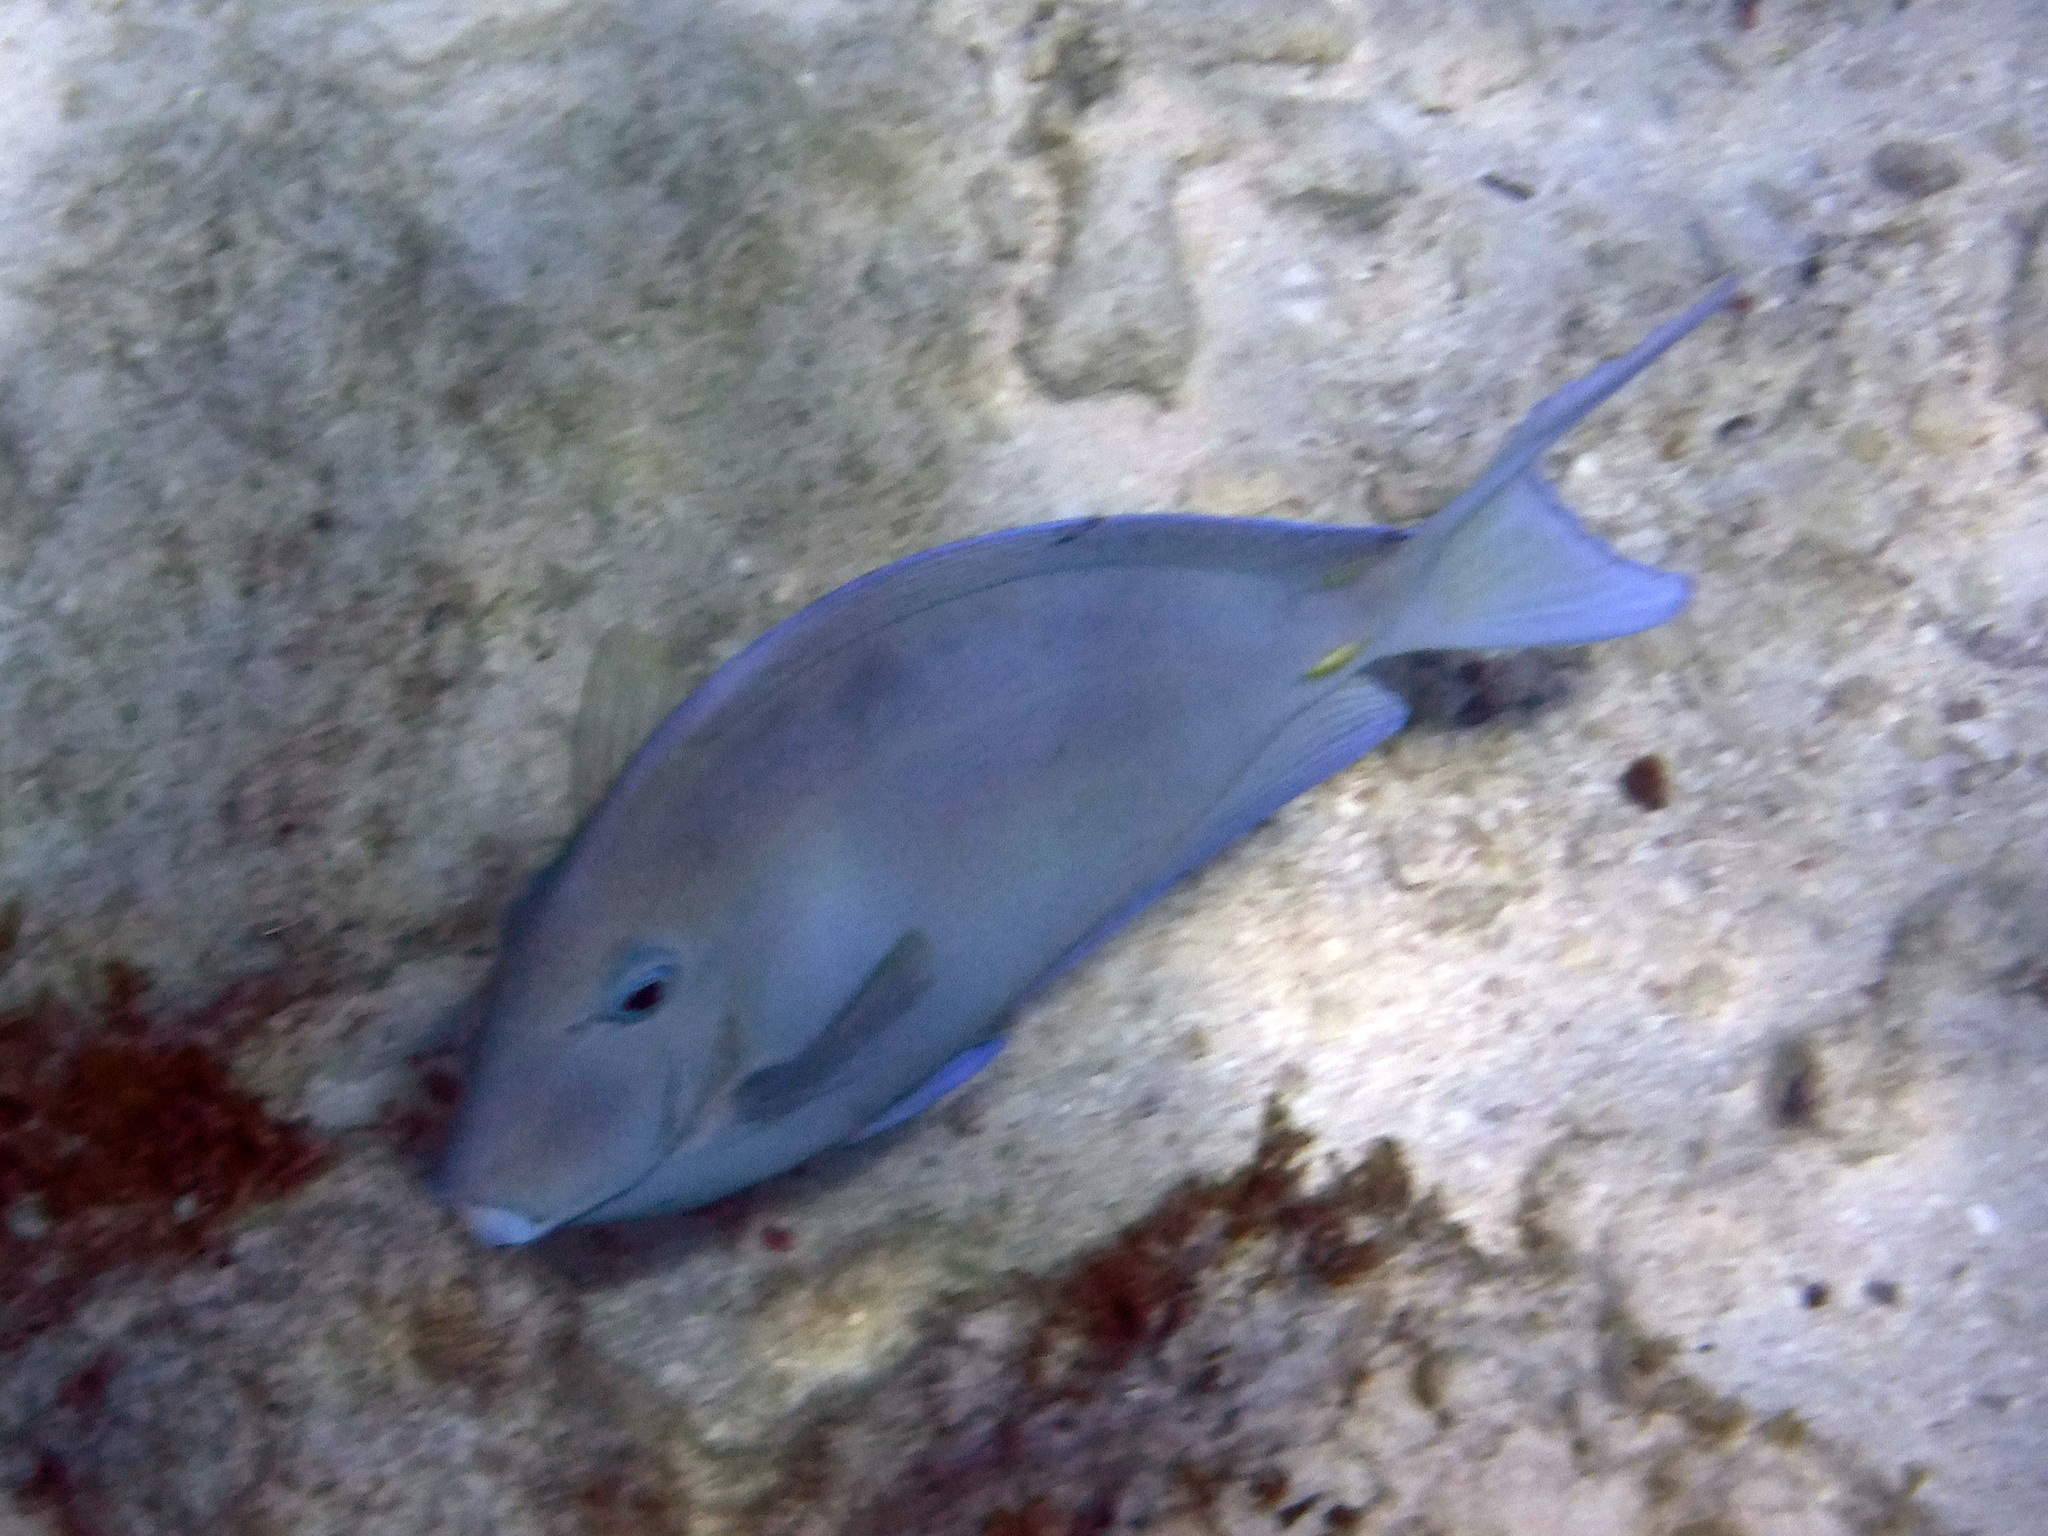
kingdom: Animalia
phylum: Chordata
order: Perciformes
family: Acanthuridae
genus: Acanthurus
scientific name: Acanthurus coeruleus
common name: Blue tang
